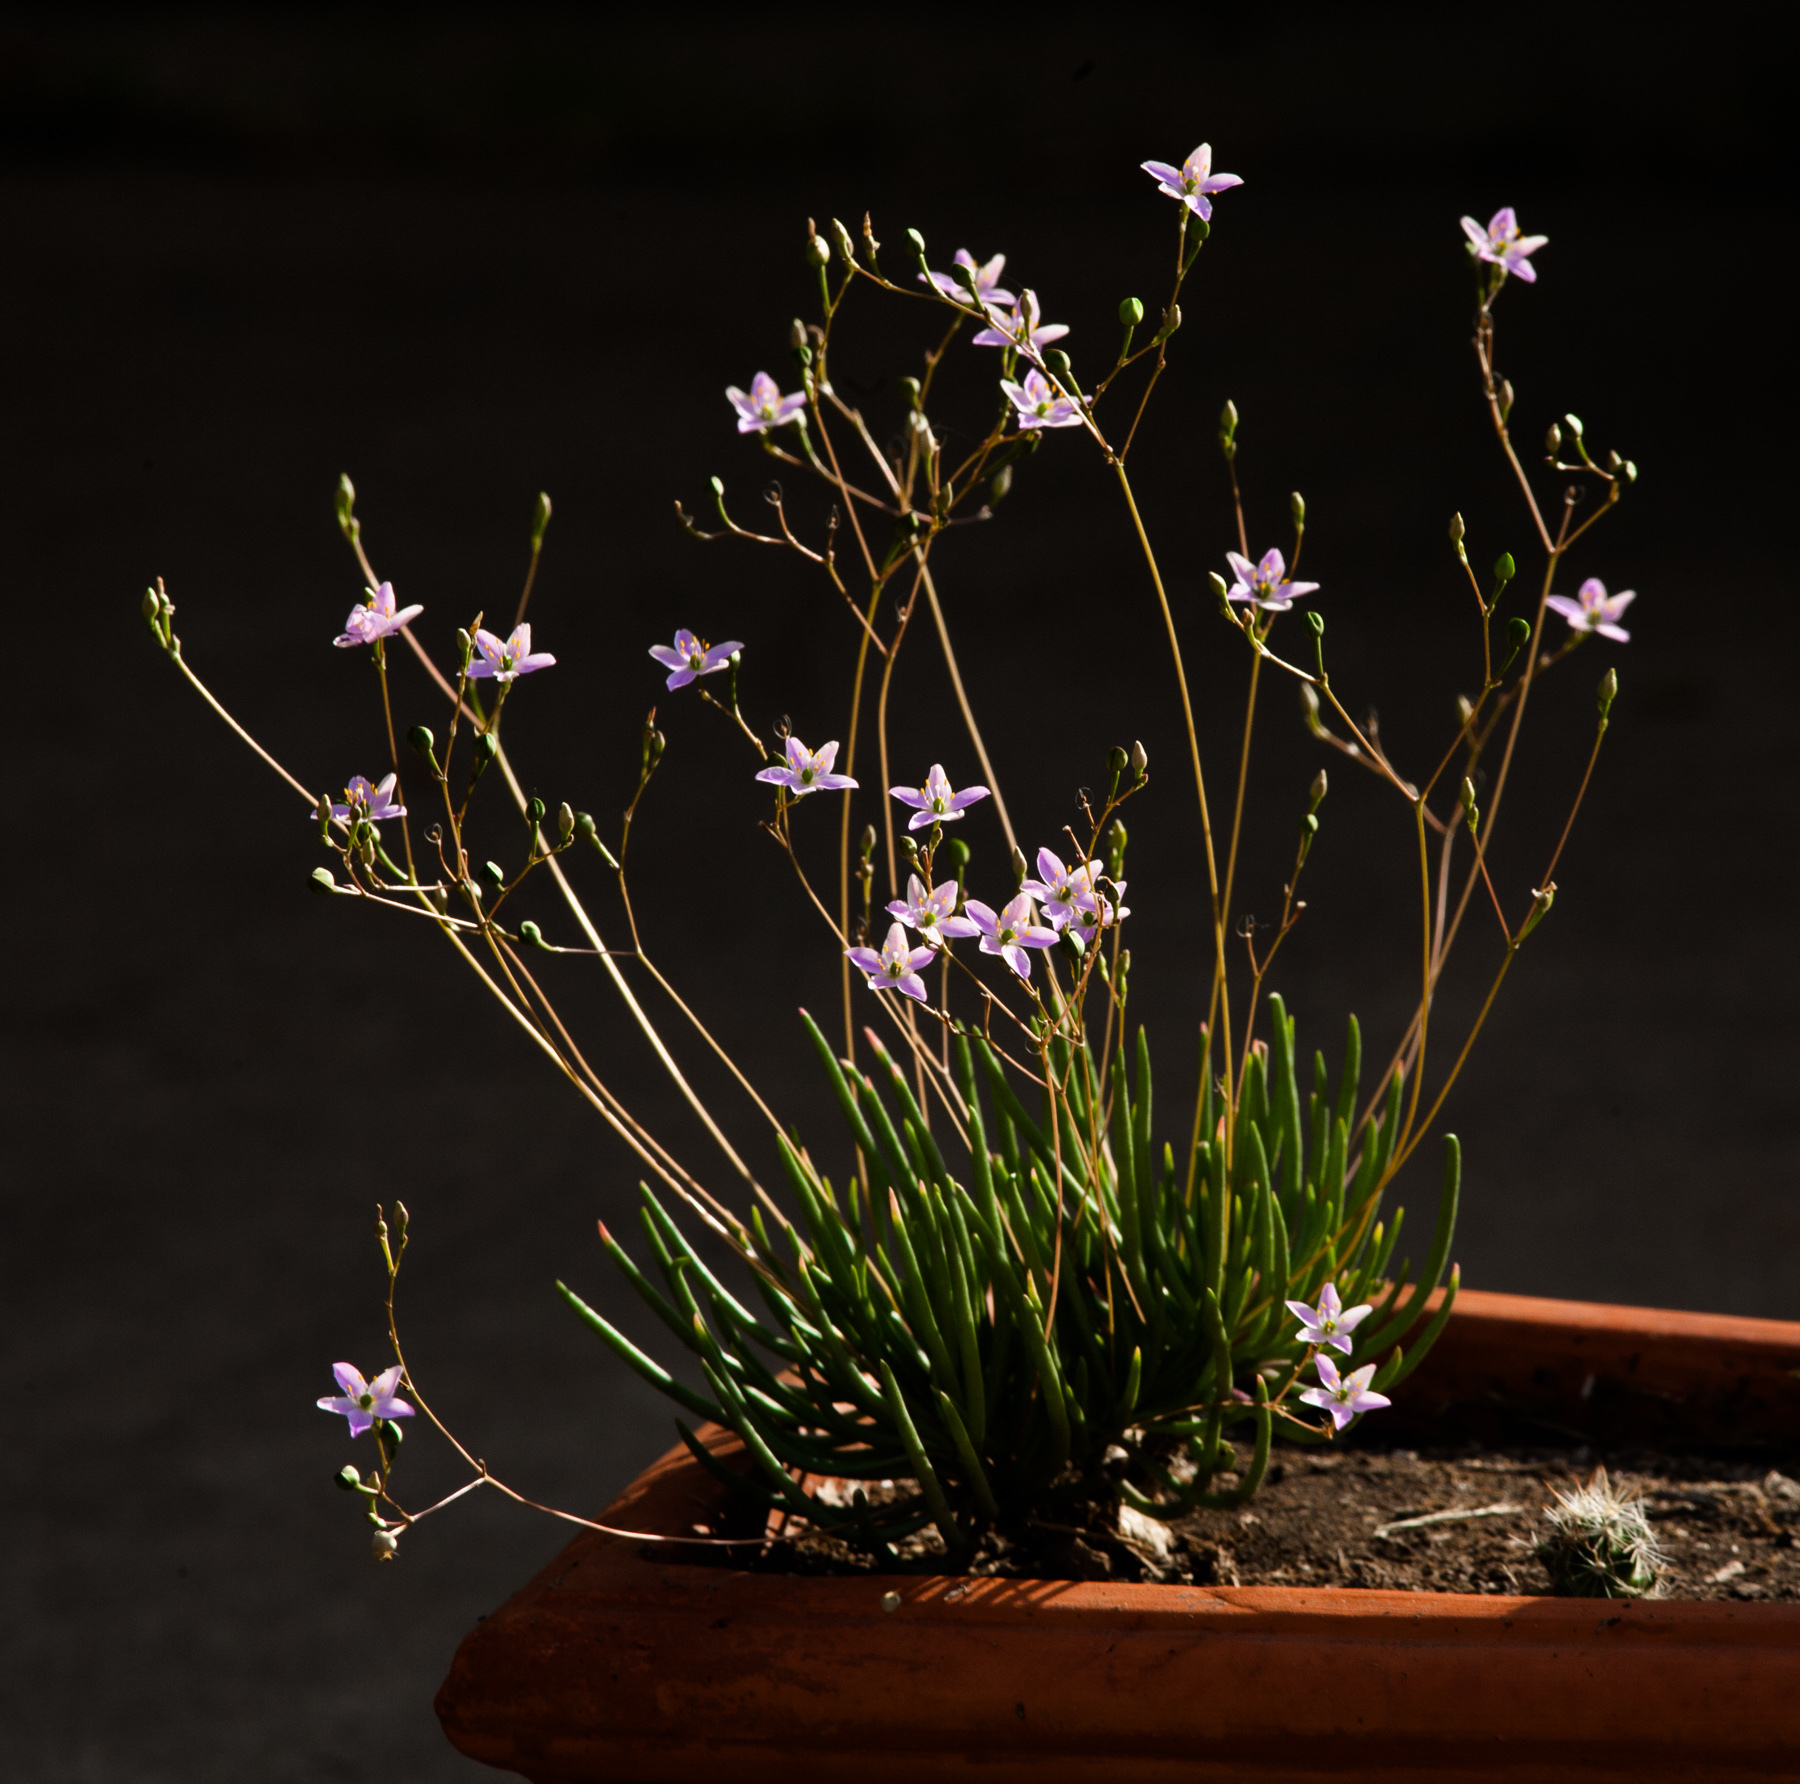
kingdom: Plantae
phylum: Tracheophyta
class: Magnoliopsida
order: Caryophyllales
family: Montiaceae
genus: Phemeranthus
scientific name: Phemeranthus parviflorus
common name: Sunbright
